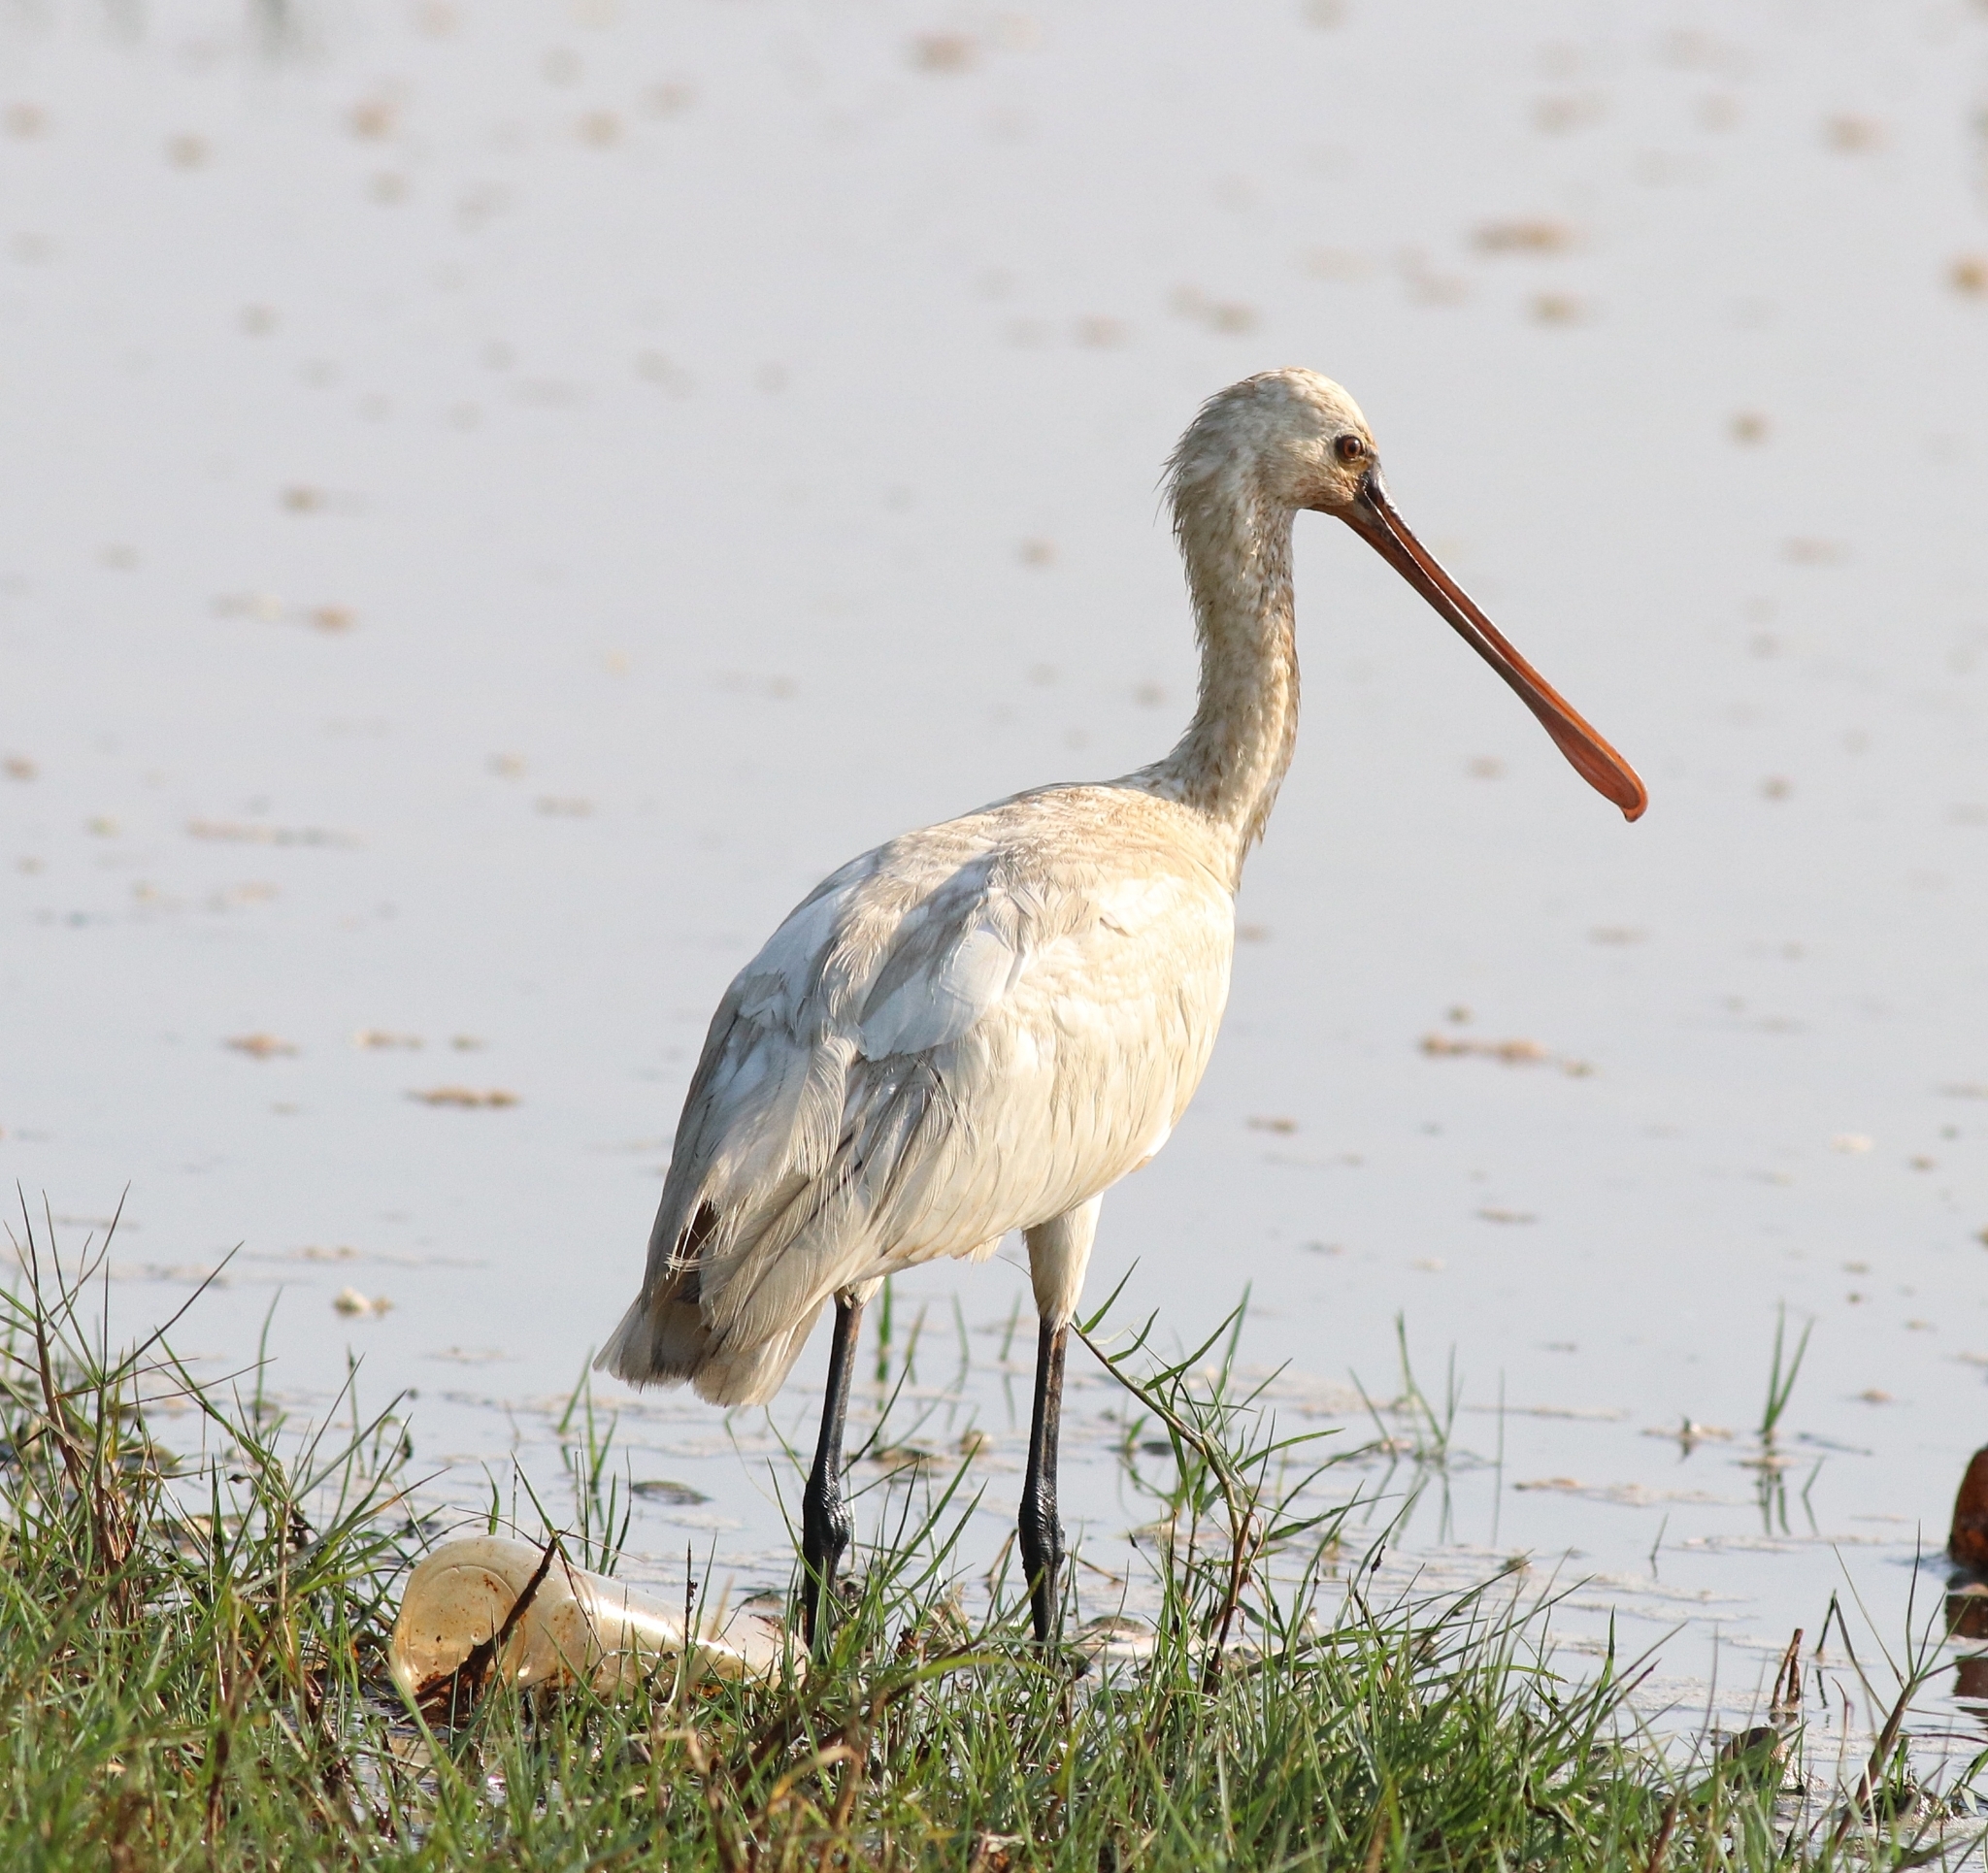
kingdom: Animalia
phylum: Chordata
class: Aves
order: Pelecaniformes
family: Threskiornithidae
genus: Platalea
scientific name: Platalea leucorodia
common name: Eurasian spoonbill
